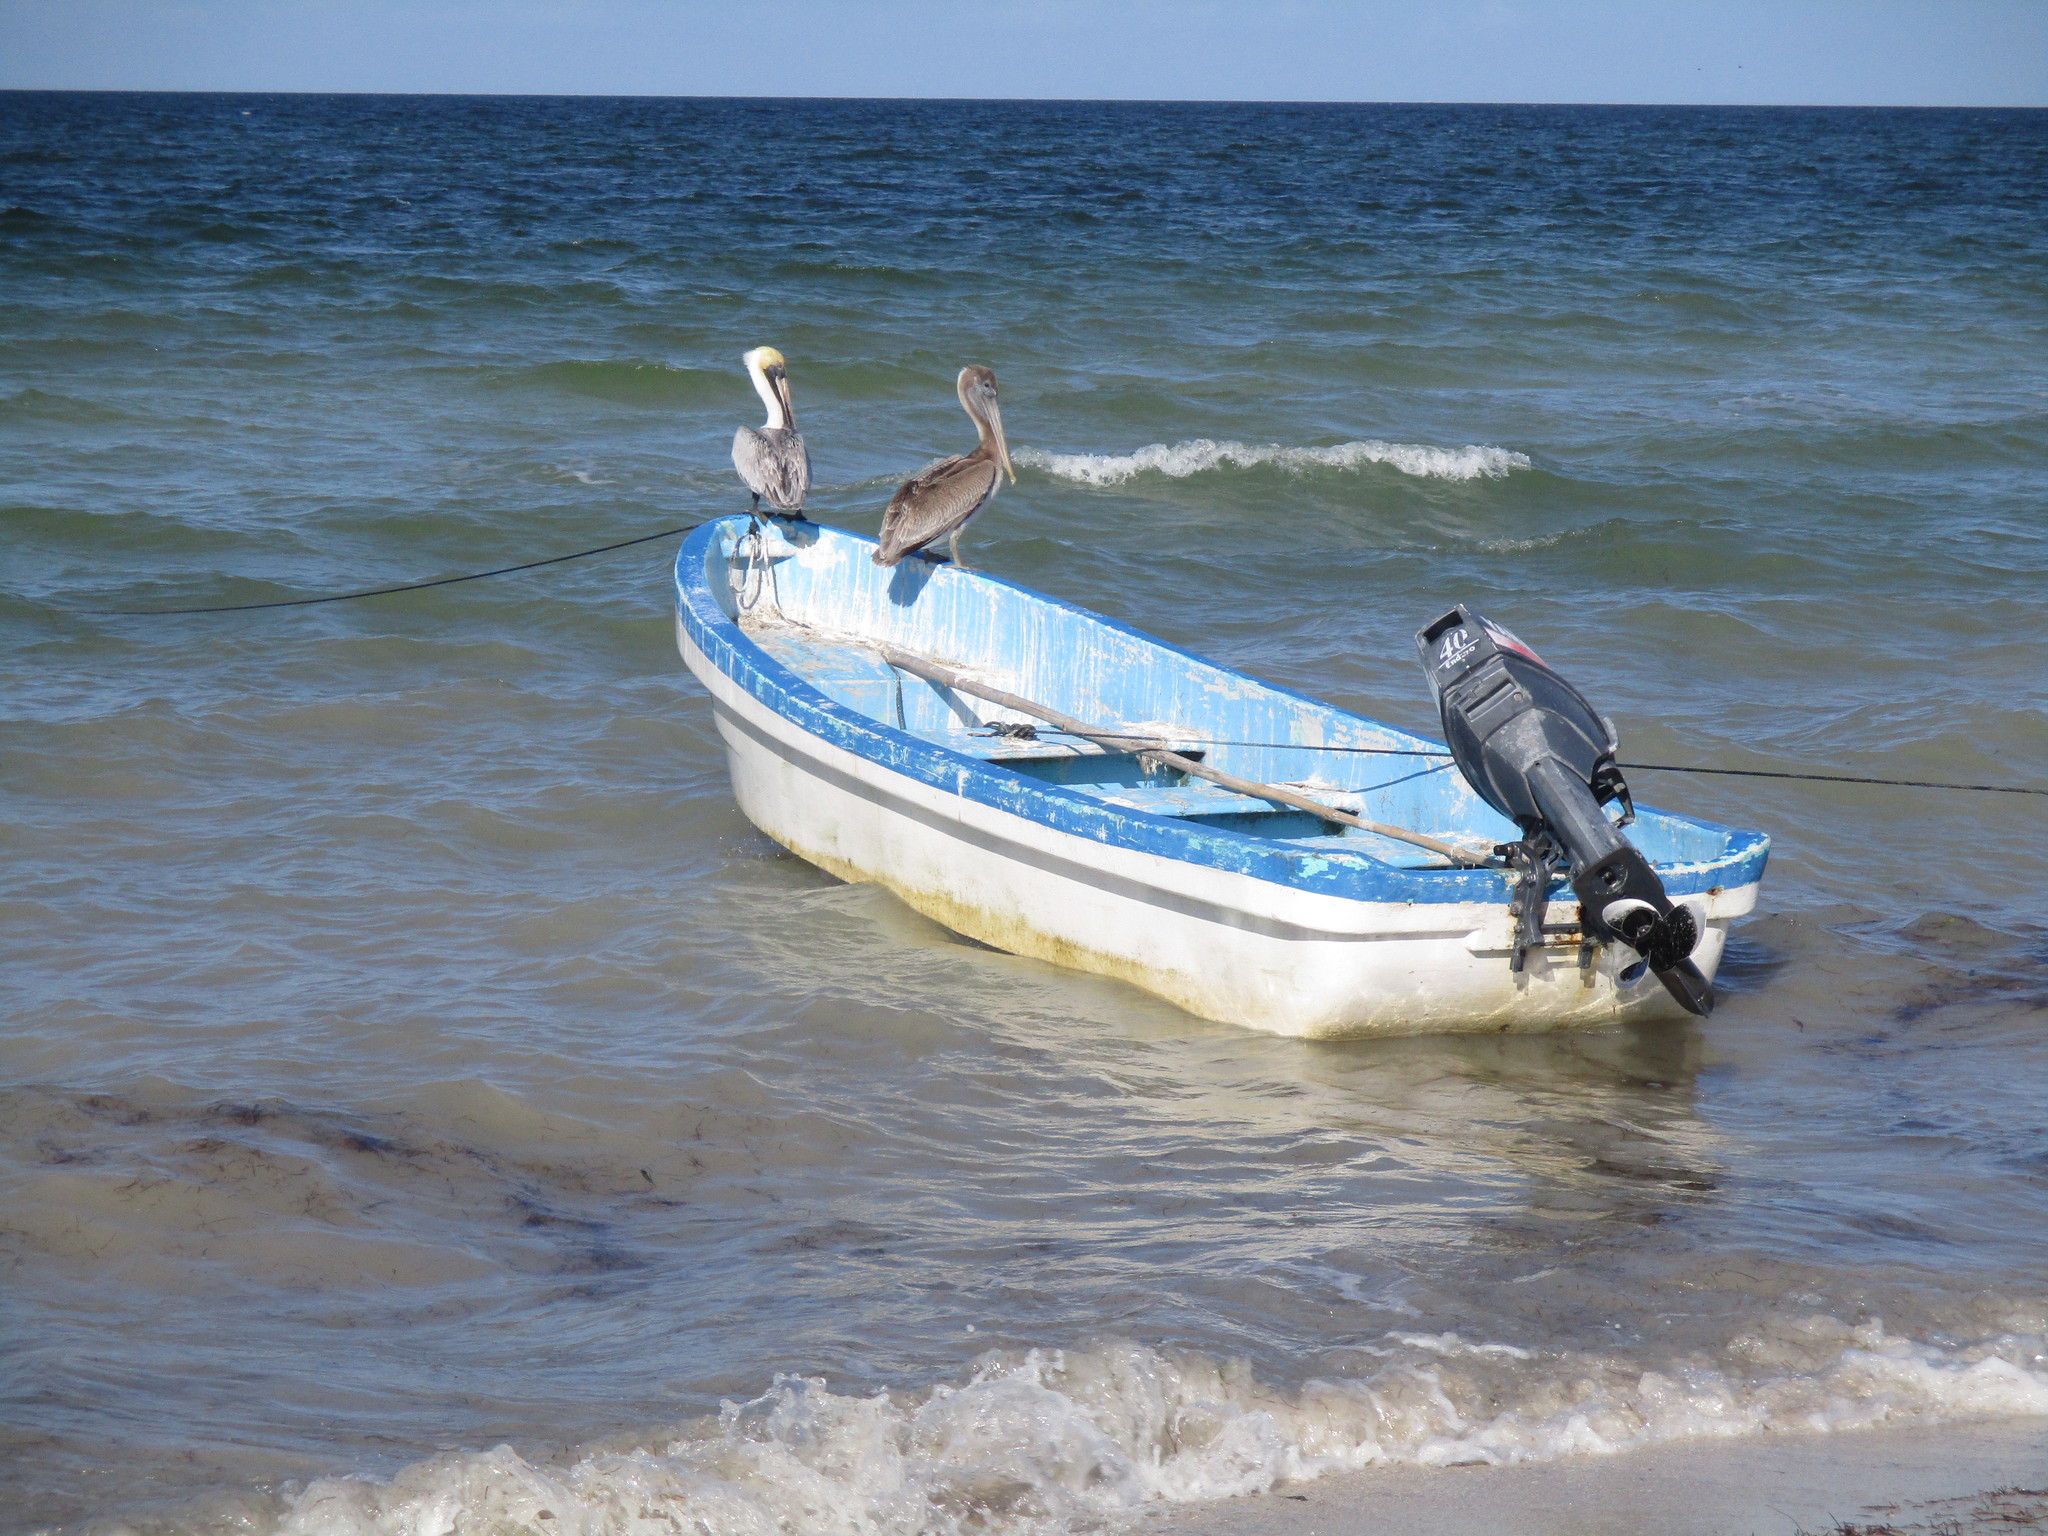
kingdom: Animalia
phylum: Chordata
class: Aves
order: Pelecaniformes
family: Pelecanidae
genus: Pelecanus
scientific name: Pelecanus occidentalis
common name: Brown pelican
